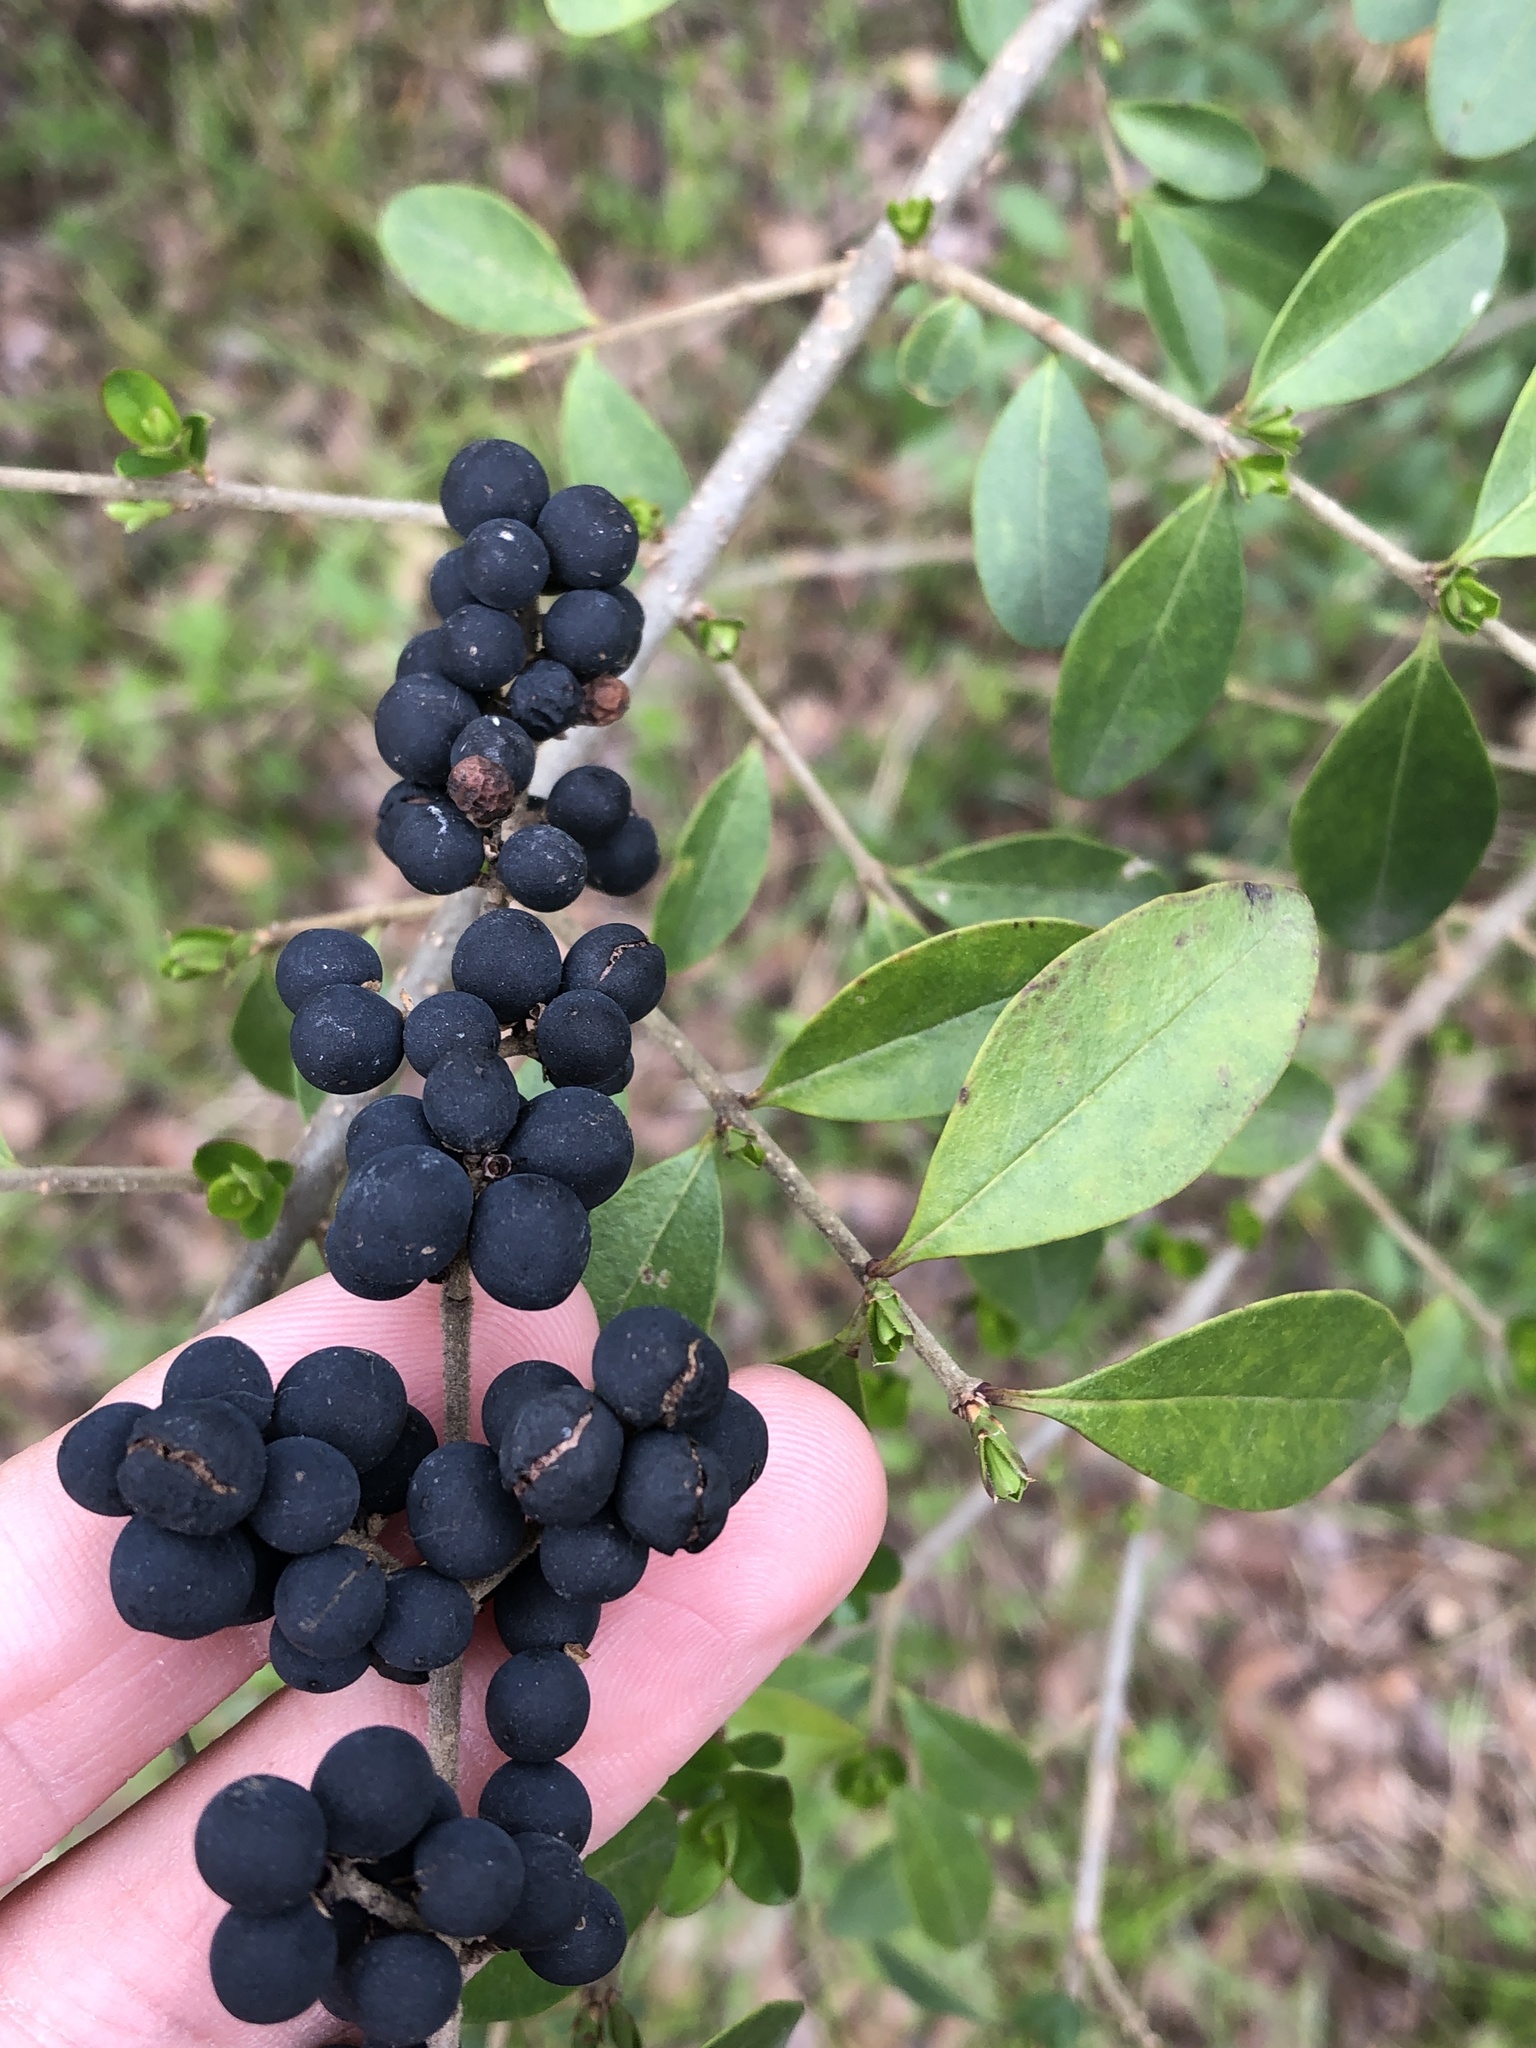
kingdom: Plantae
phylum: Tracheophyta
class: Magnoliopsida
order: Lamiales
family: Oleaceae
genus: Ligustrum
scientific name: Ligustrum quihoui
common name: Waxyleaf privet
